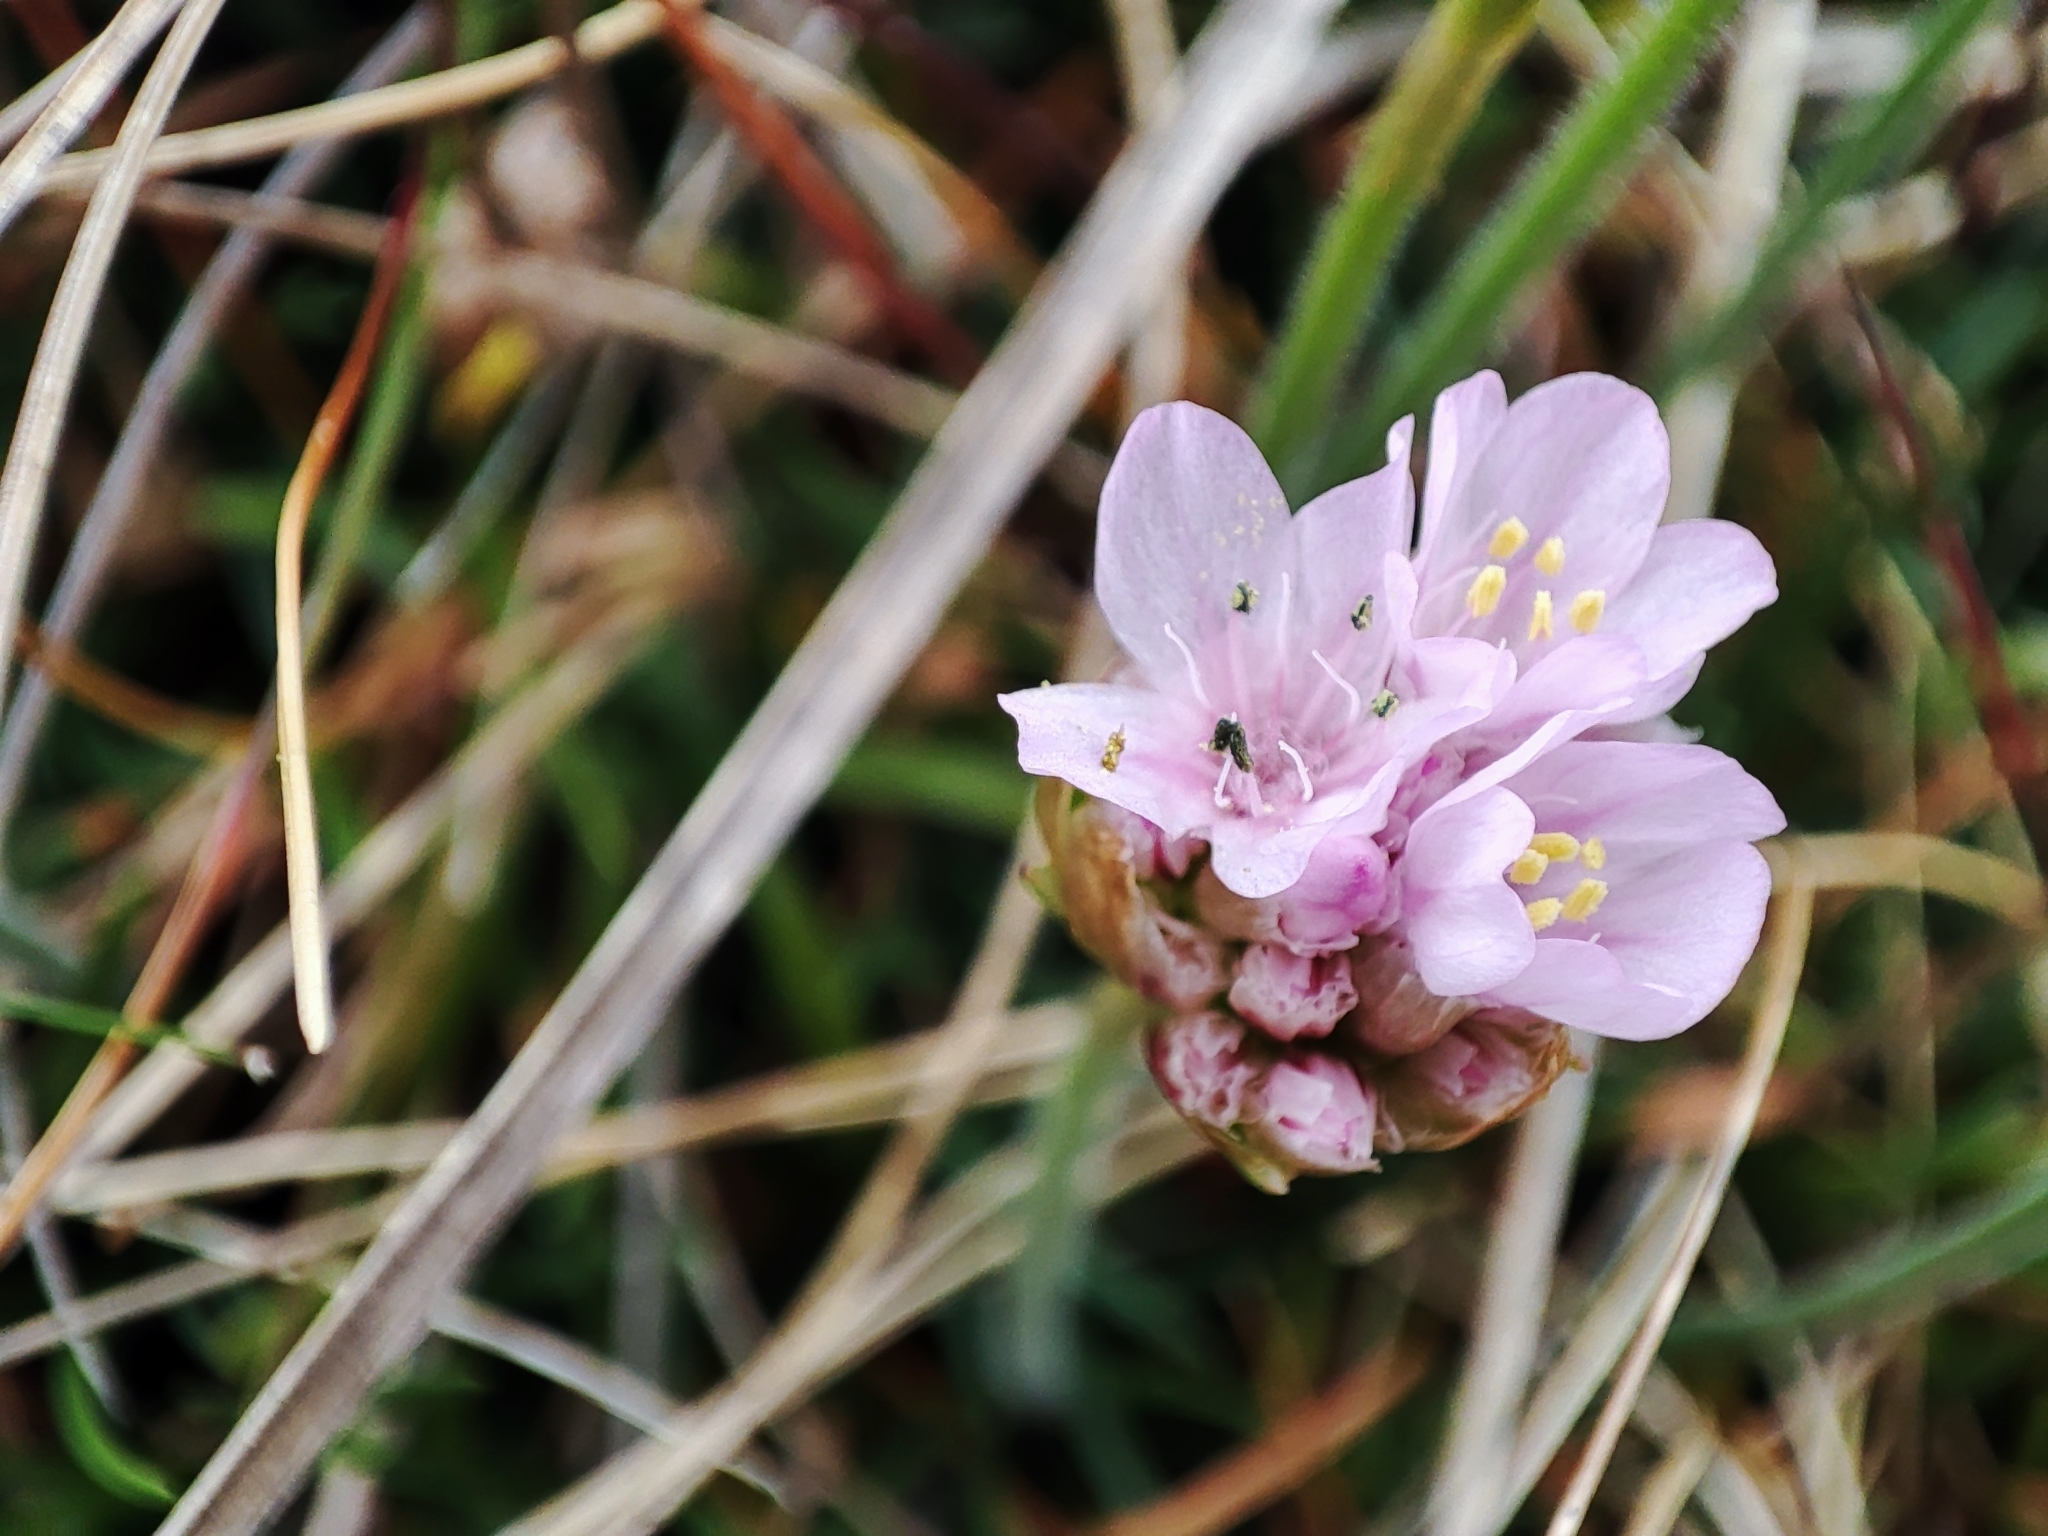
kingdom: Plantae
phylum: Tracheophyta
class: Magnoliopsida
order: Caryophyllales
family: Plumbaginaceae
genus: Armeria
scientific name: Armeria maritima
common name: Thrift
